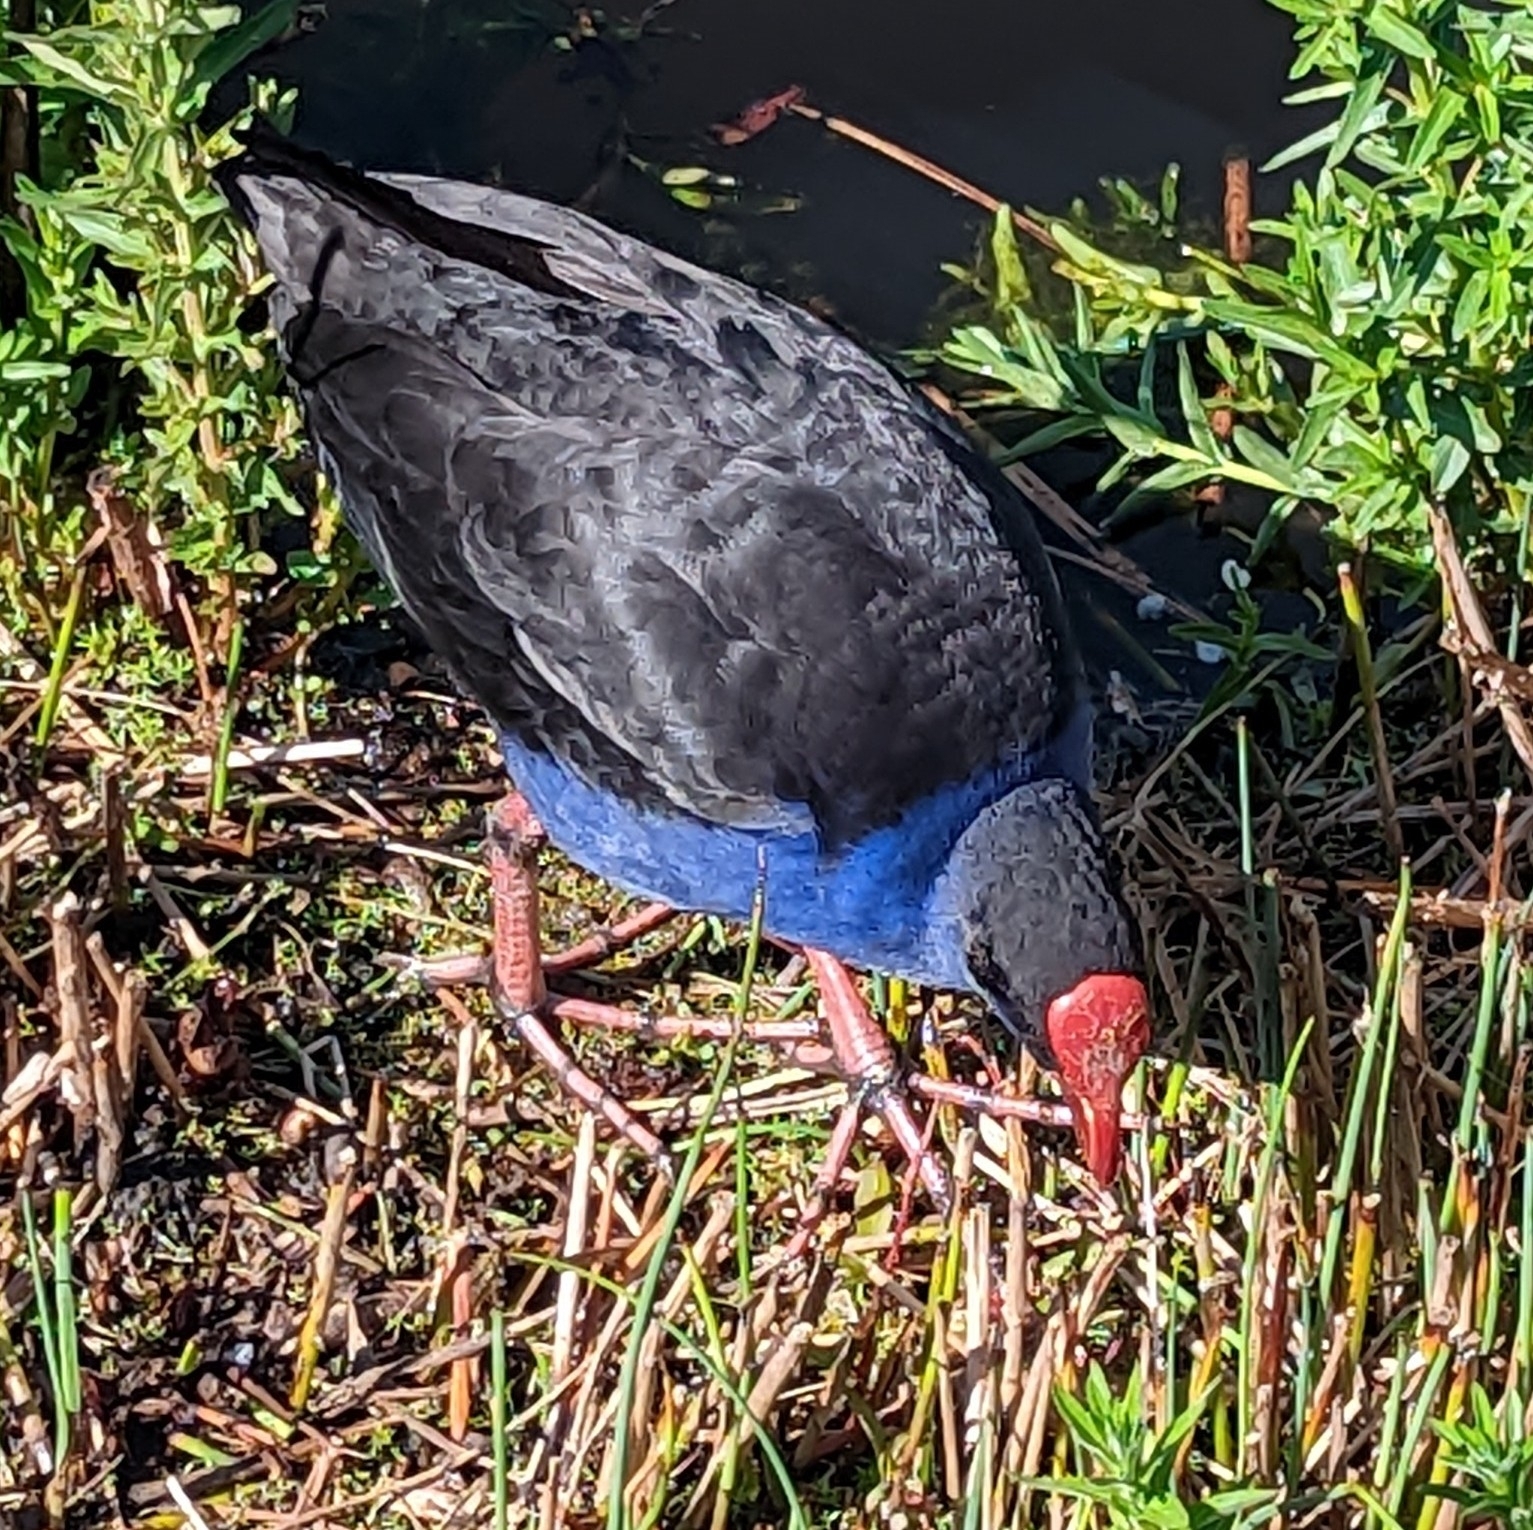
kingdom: Animalia
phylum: Chordata
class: Aves
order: Gruiformes
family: Rallidae
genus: Porphyrio
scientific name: Porphyrio melanotus
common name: Australasian swamphen
